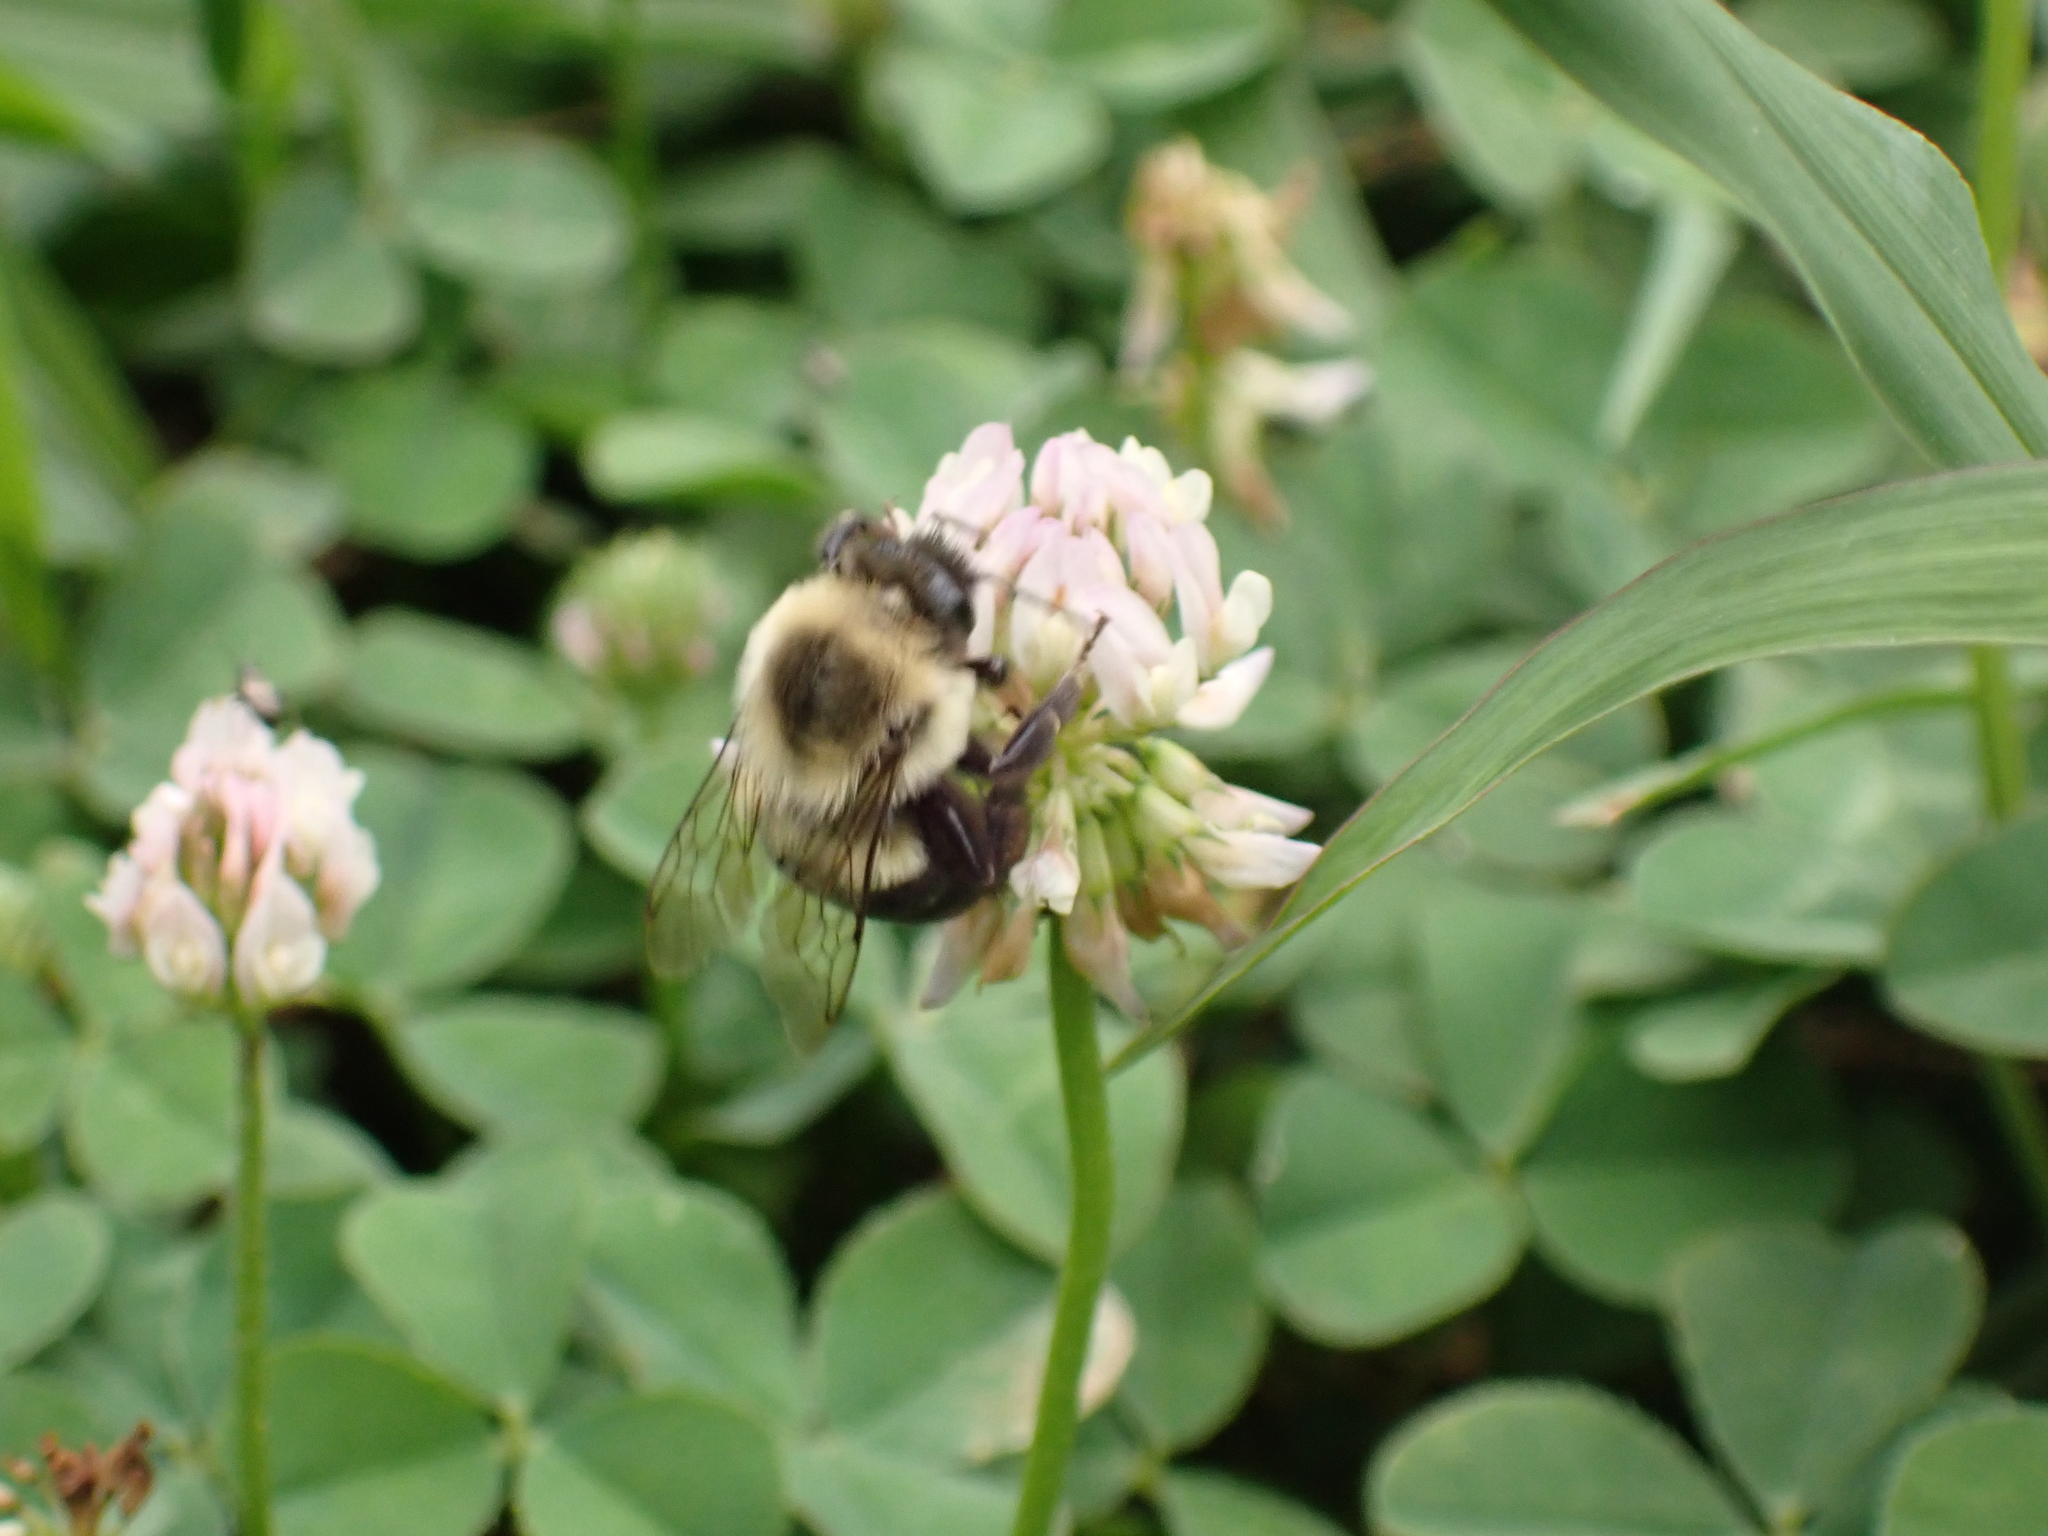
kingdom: Animalia
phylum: Arthropoda
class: Insecta
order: Hymenoptera
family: Apidae
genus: Bombus
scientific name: Bombus impatiens
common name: Common eastern bumble bee
